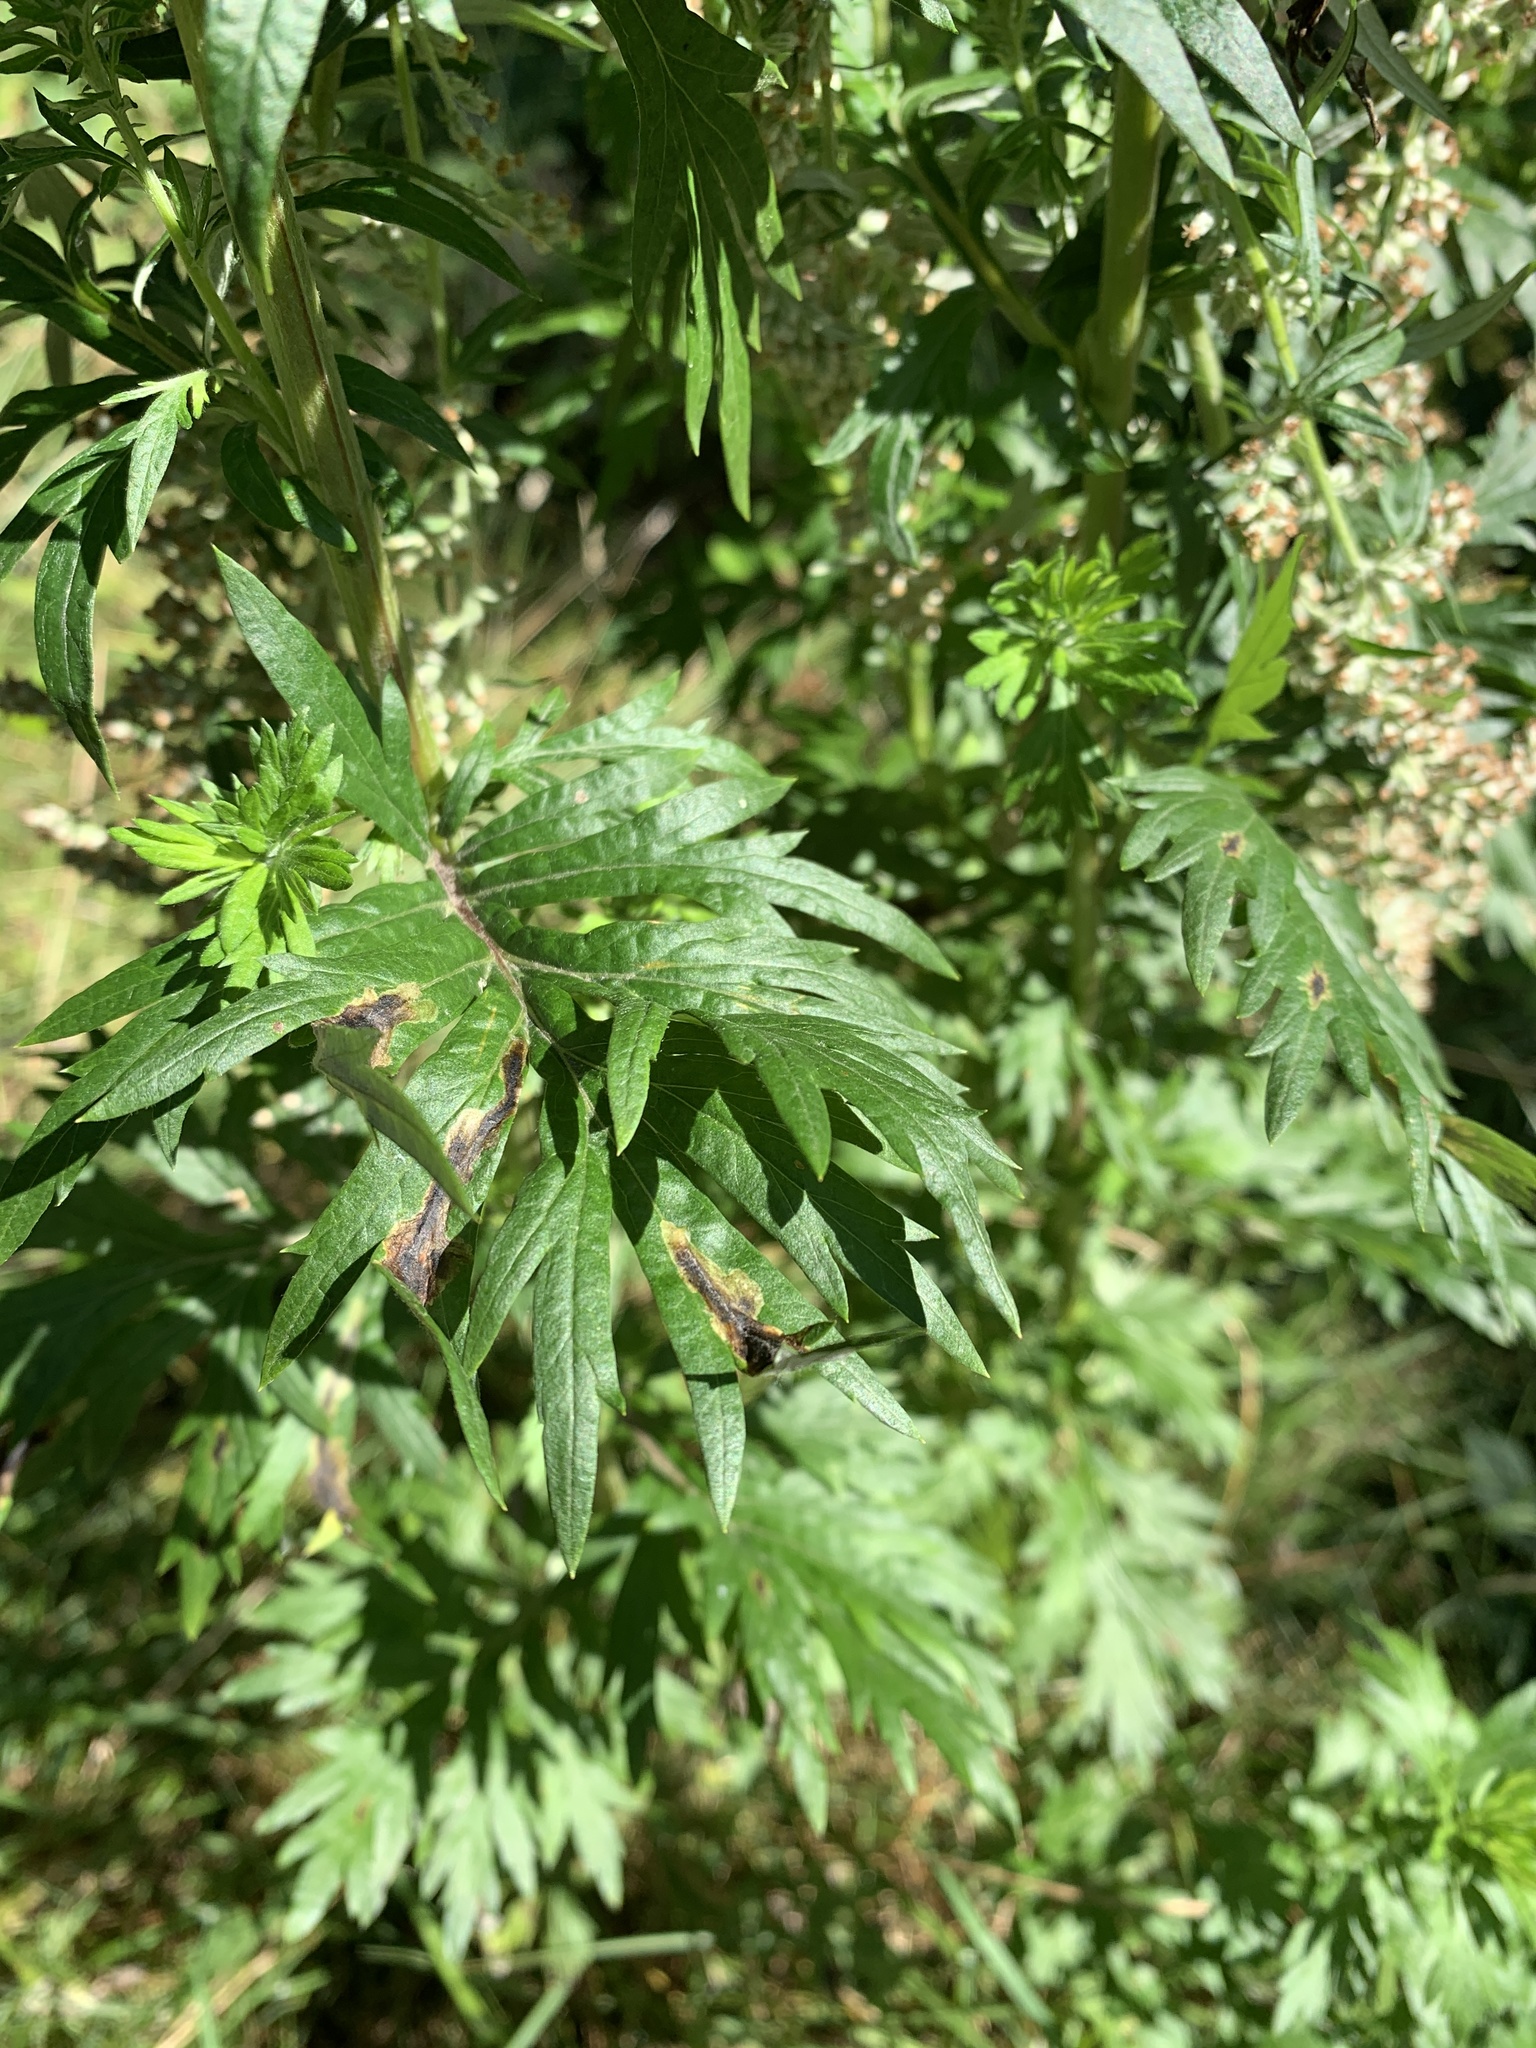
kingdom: Plantae
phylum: Tracheophyta
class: Magnoliopsida
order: Asterales
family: Asteraceae
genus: Artemisia
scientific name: Artemisia vulgaris
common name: Mugwort
